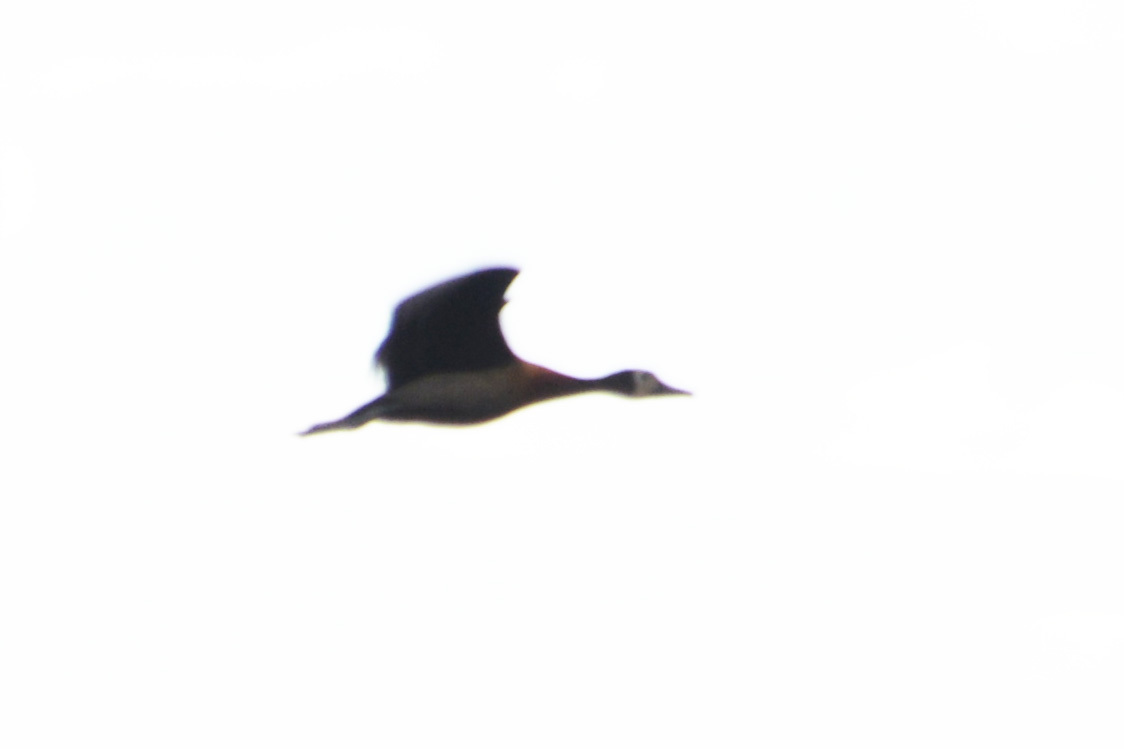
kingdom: Animalia
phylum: Chordata
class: Aves
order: Anseriformes
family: Anatidae
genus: Dendrocygna
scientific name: Dendrocygna viduata
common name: White-faced whistling duck
